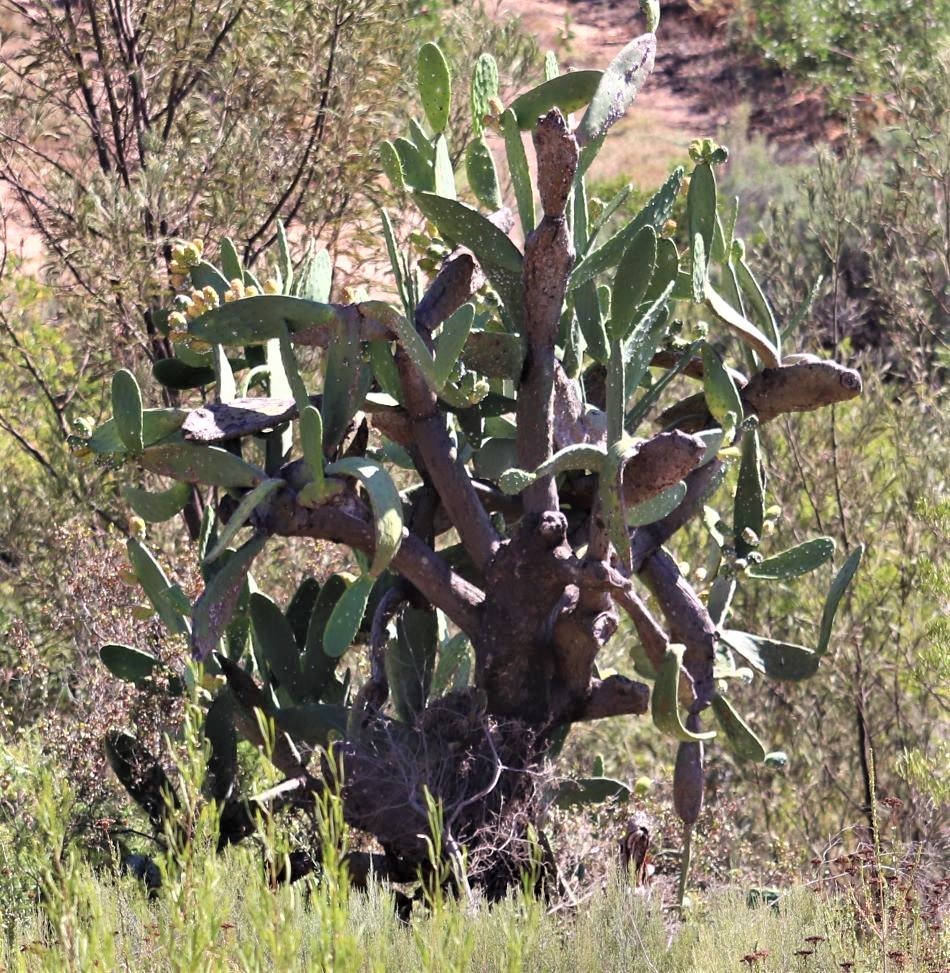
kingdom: Plantae
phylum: Tracheophyta
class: Magnoliopsida
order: Caryophyllales
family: Cactaceae
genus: Opuntia
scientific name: Opuntia ficus-indica
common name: Barbary fig
